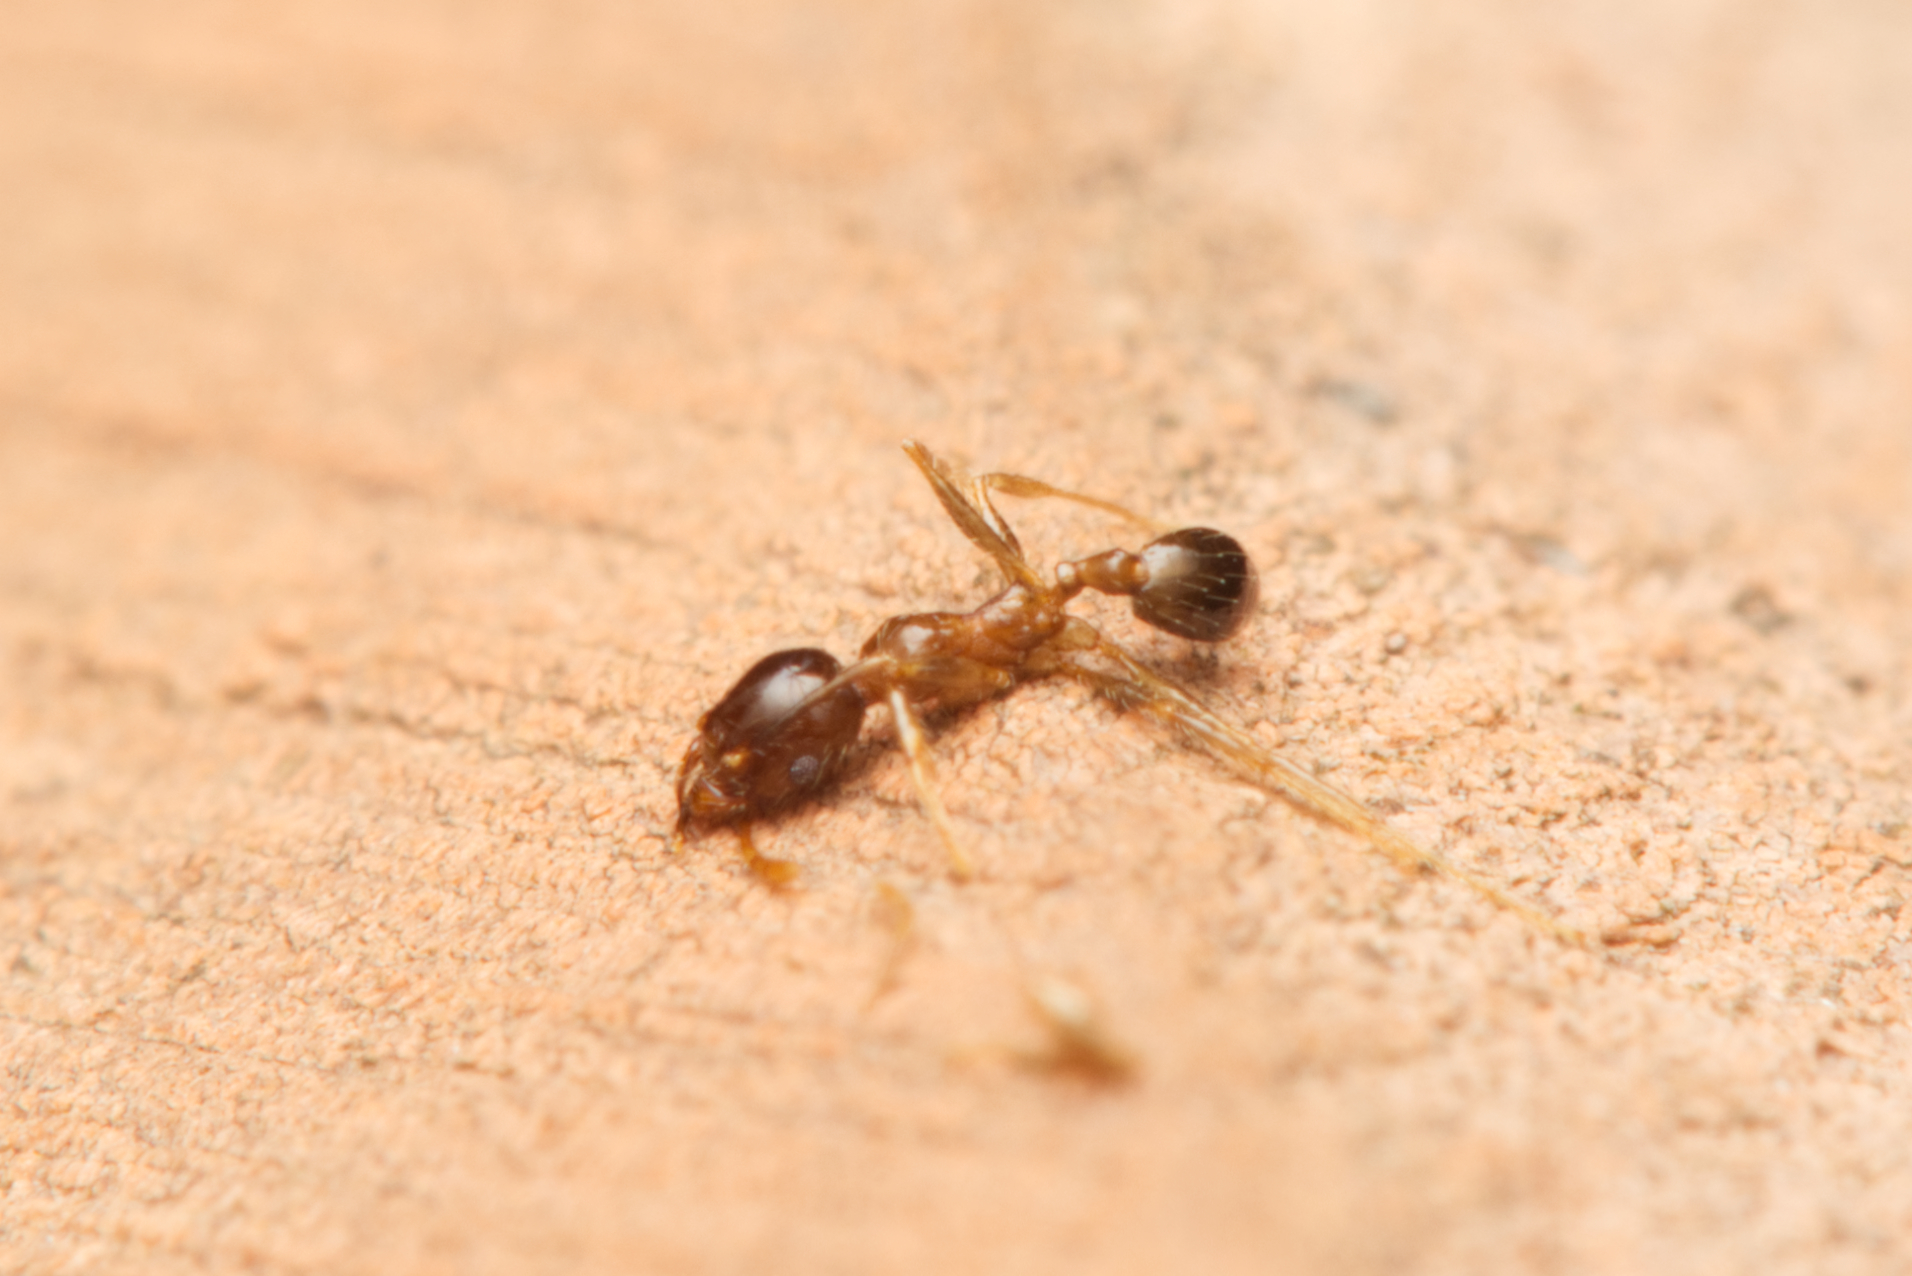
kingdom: Animalia
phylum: Arthropoda
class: Insecta
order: Hymenoptera
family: Formicidae
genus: Pheidole
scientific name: Pheidole megacephala
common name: Bigheaded ant
